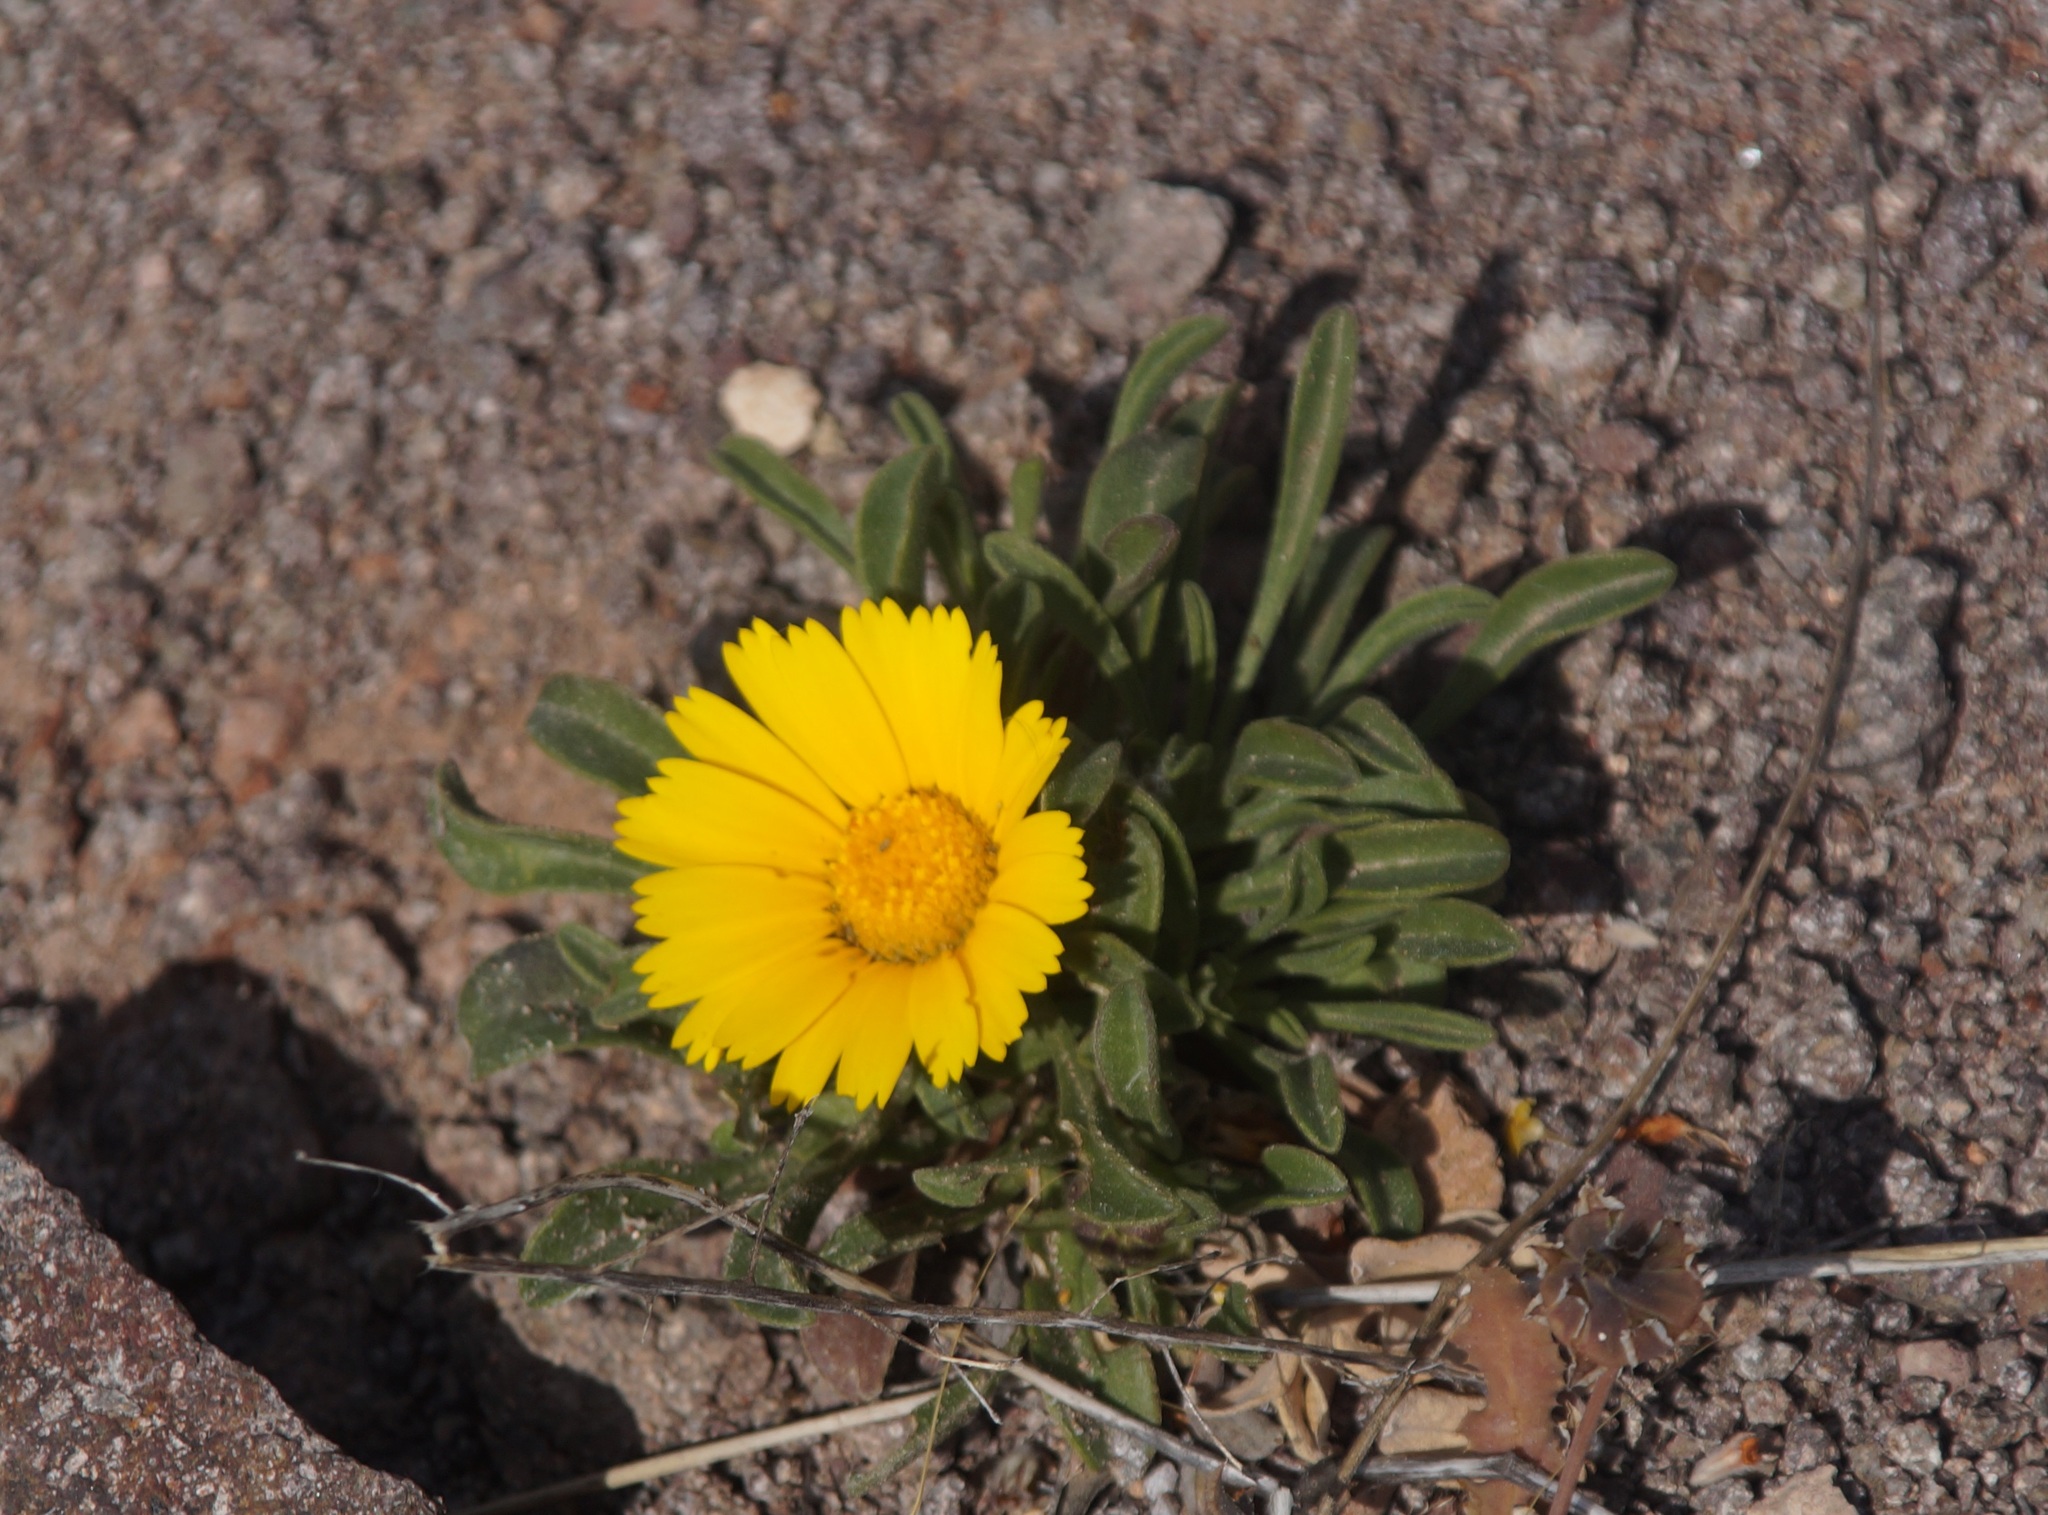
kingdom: Plantae
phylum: Tracheophyta
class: Magnoliopsida
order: Asterales
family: Asteraceae
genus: Pallenis
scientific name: Pallenis maritima
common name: Golden coin daisy
